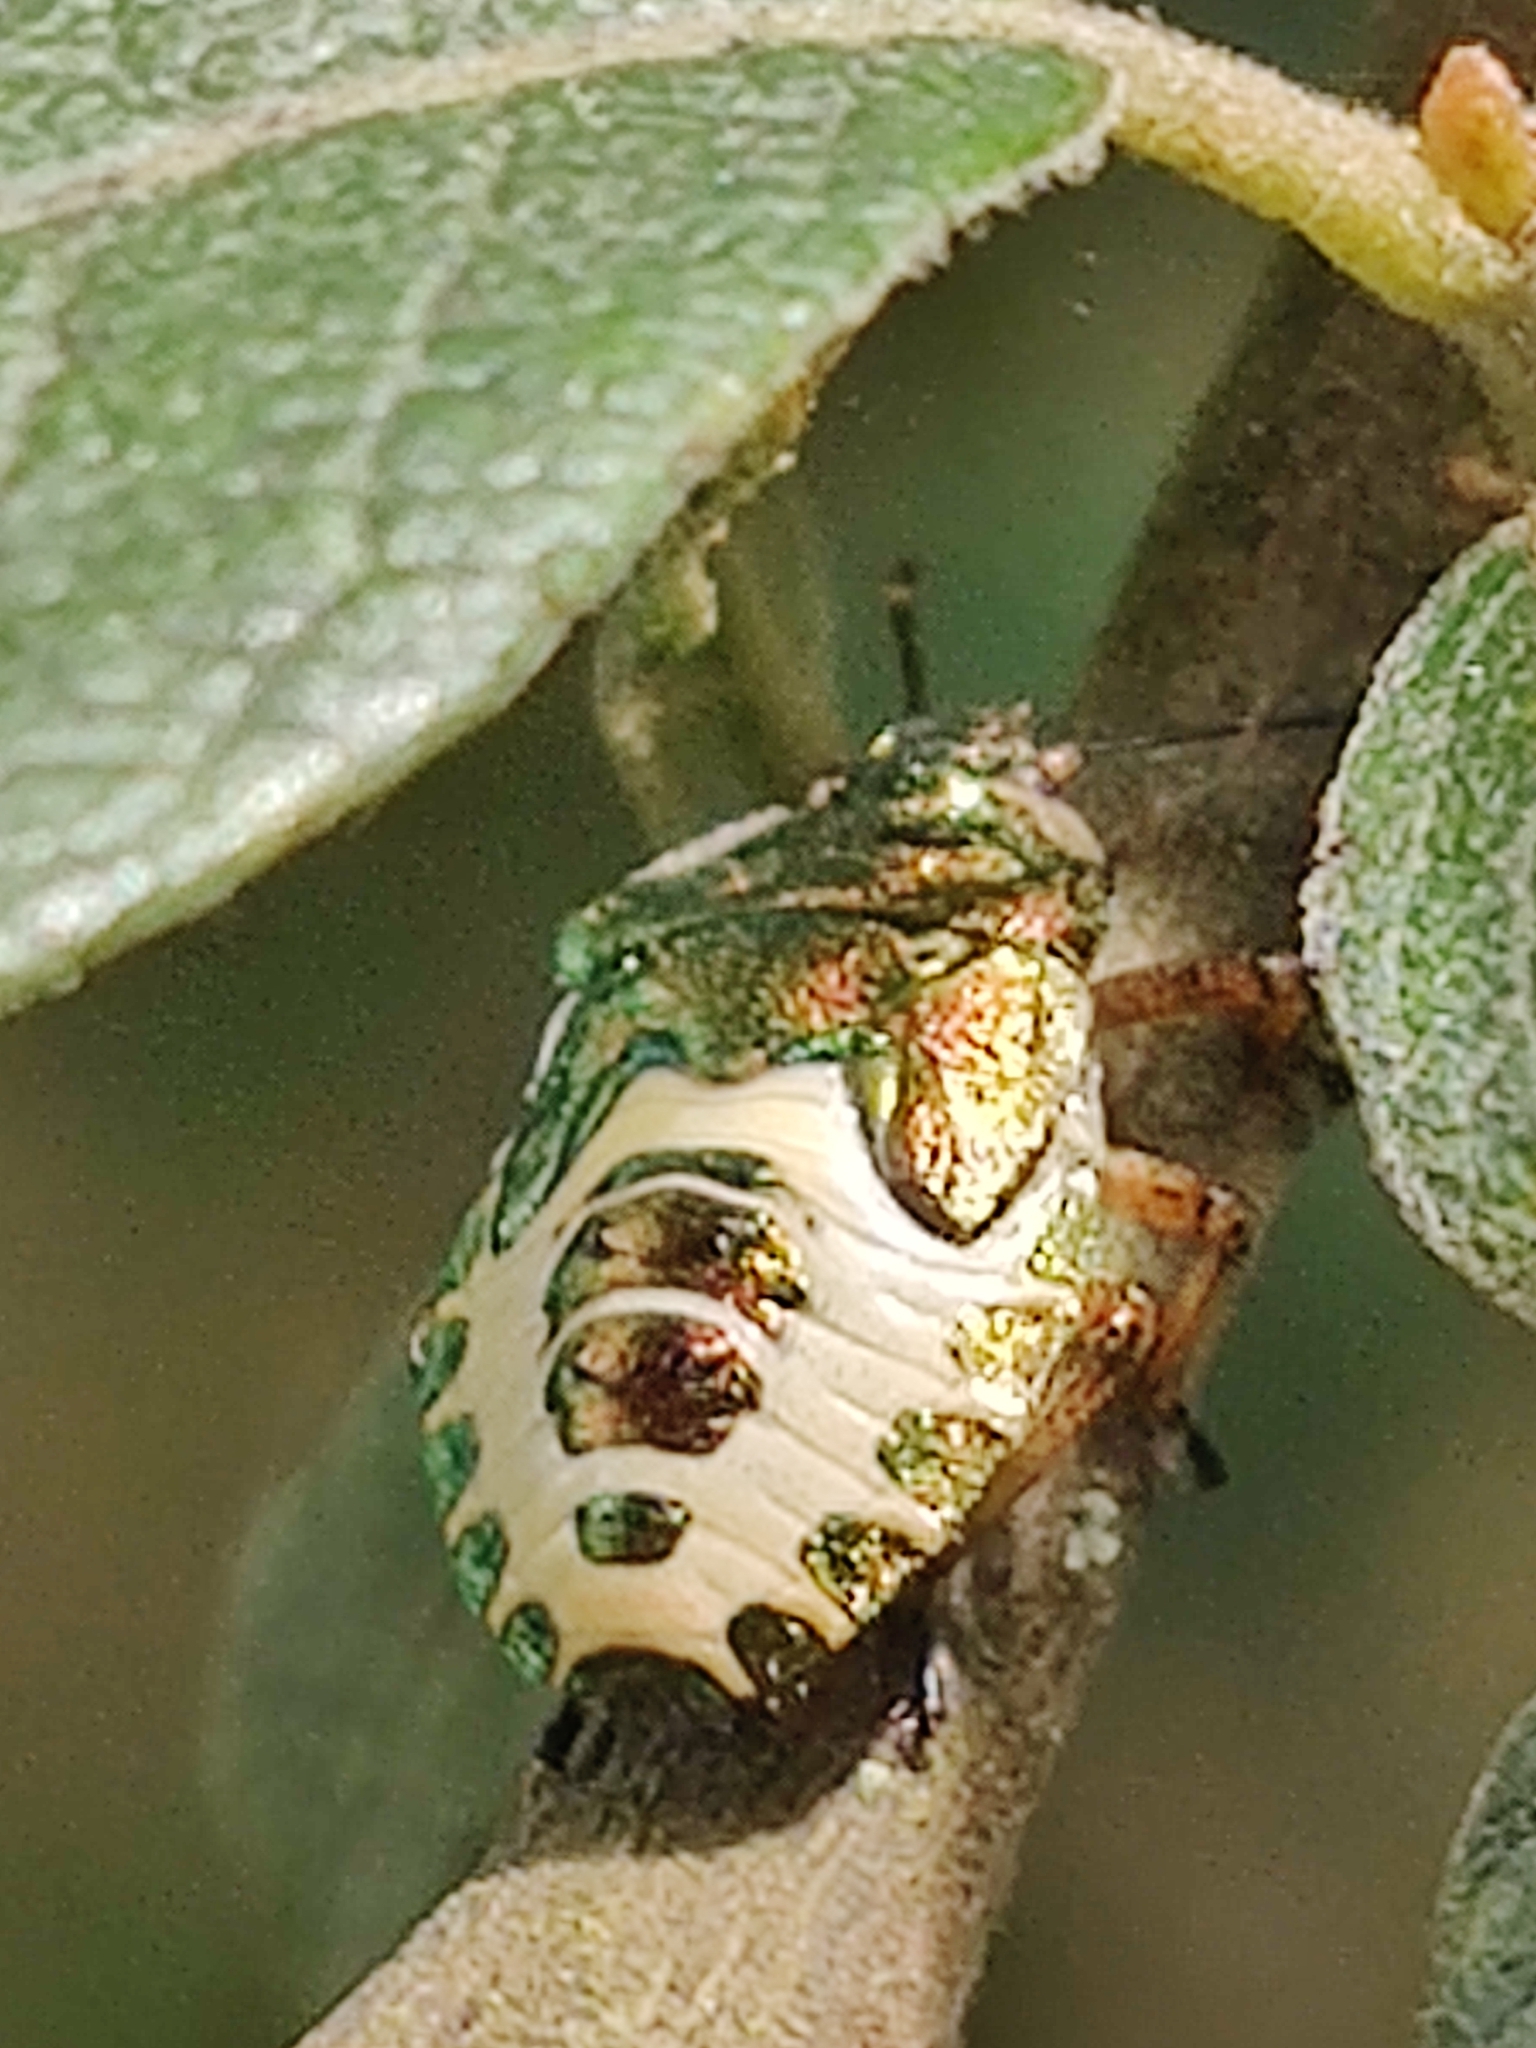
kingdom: Animalia
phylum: Arthropoda
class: Insecta
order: Hemiptera
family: Pentatomidae
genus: Troilus
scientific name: Troilus luridus
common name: Bronze shieldbug
